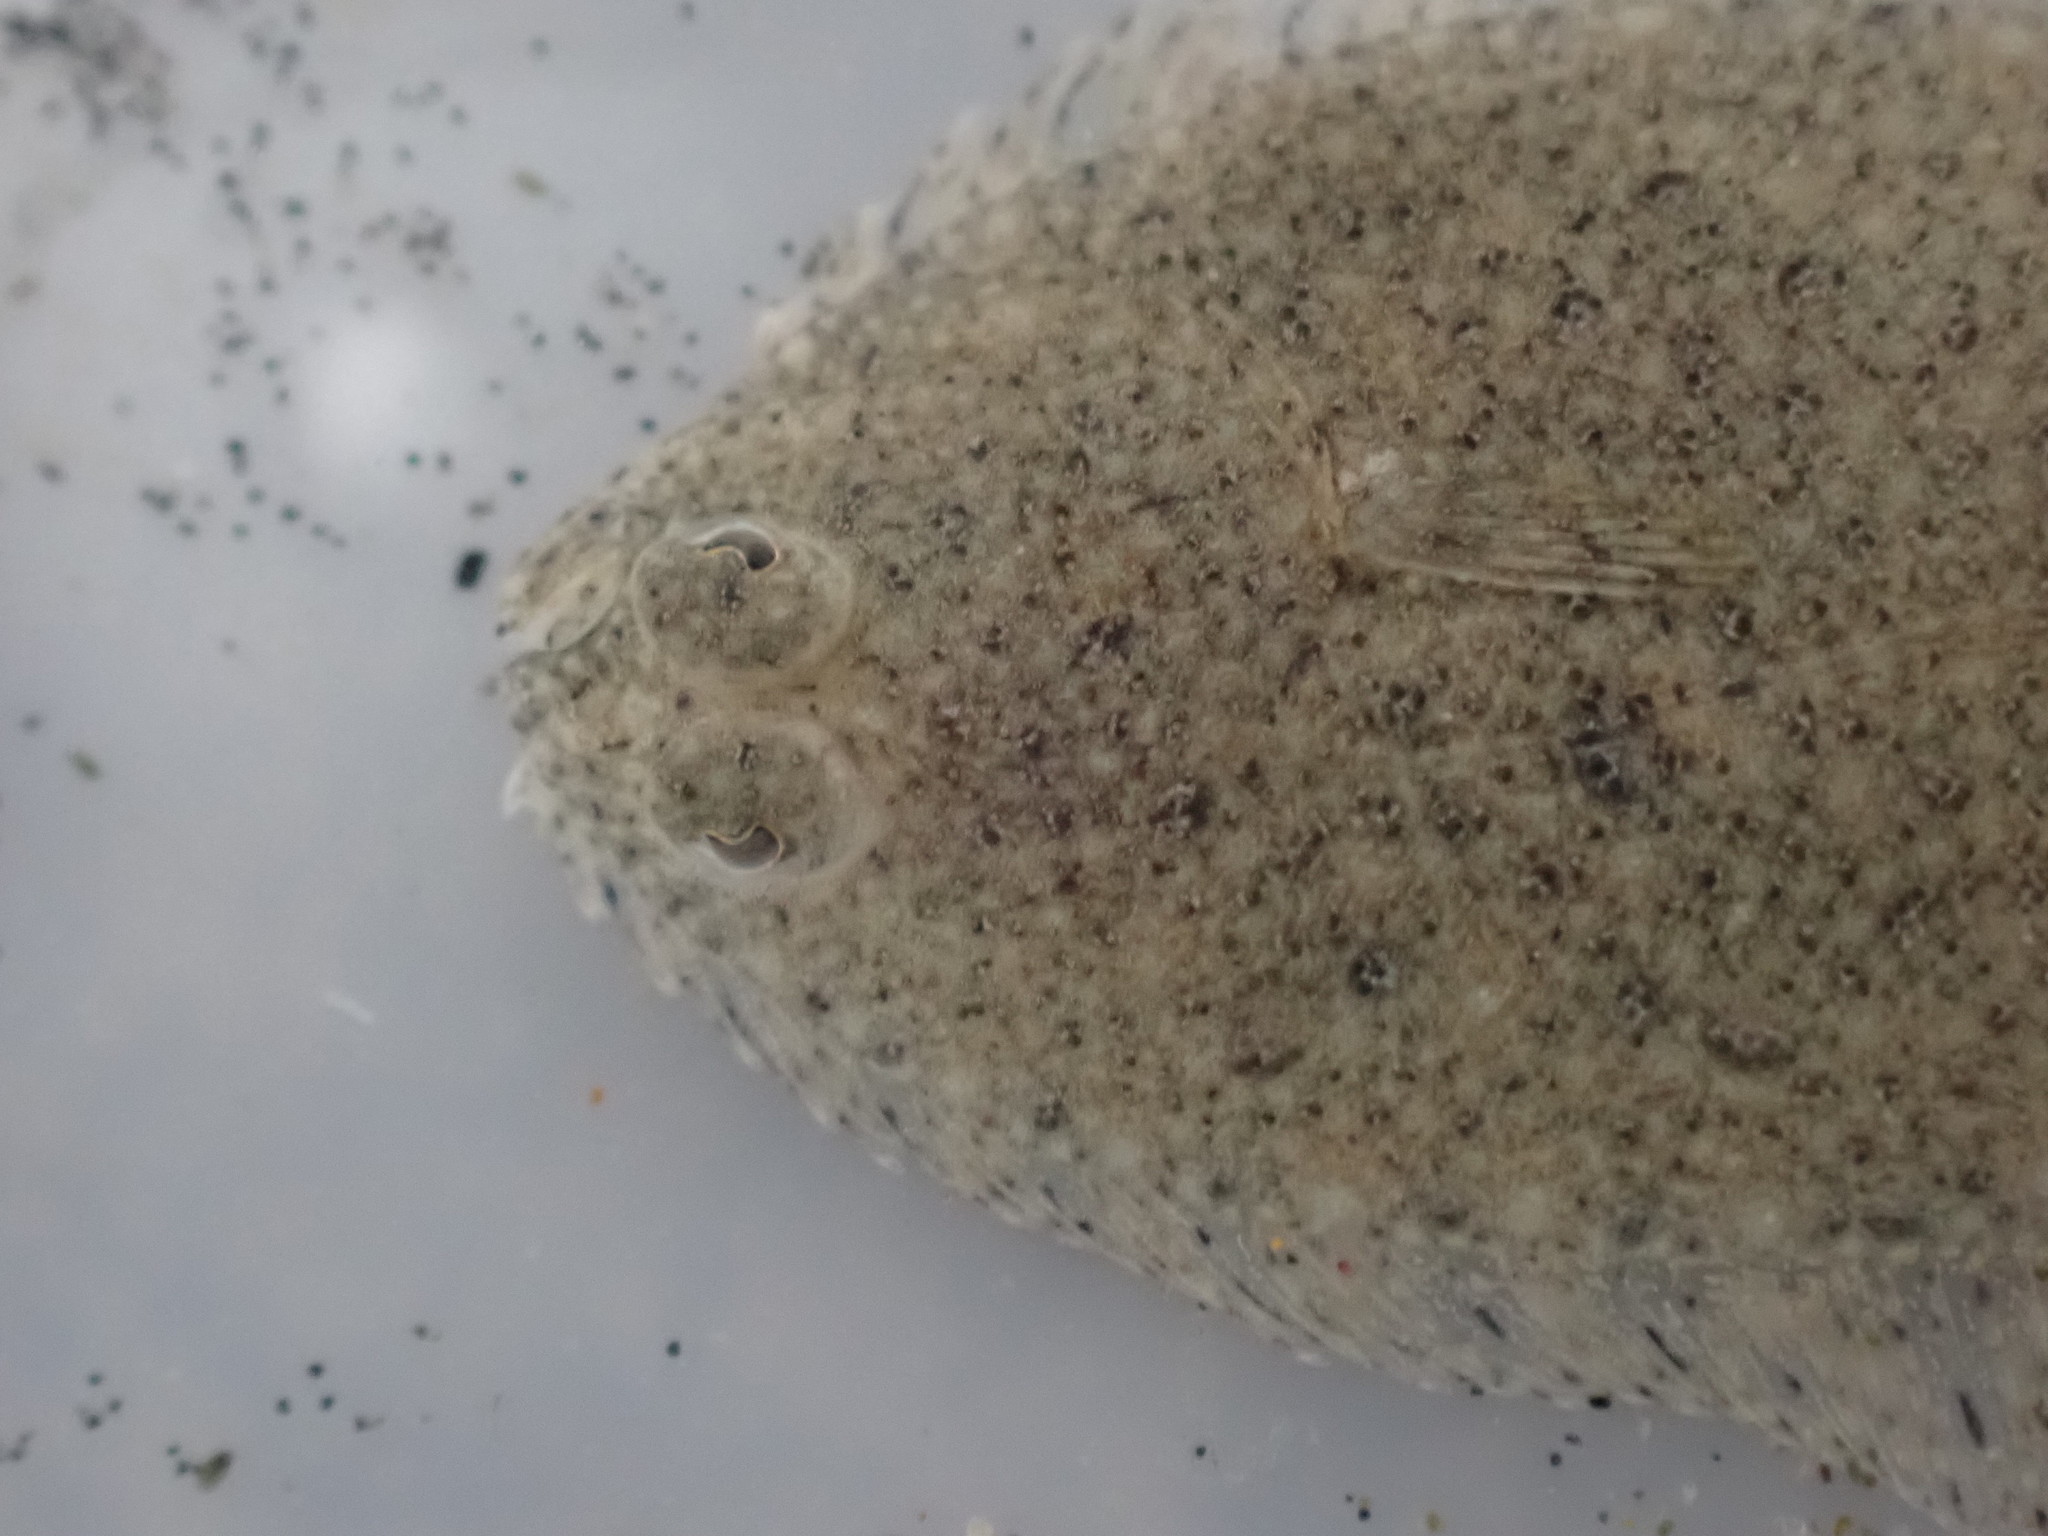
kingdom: Animalia
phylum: Chordata
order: Pleuronectiformes
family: Pleuronectidae
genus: Rhombosolea
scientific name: Rhombosolea plebeia
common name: Dab
